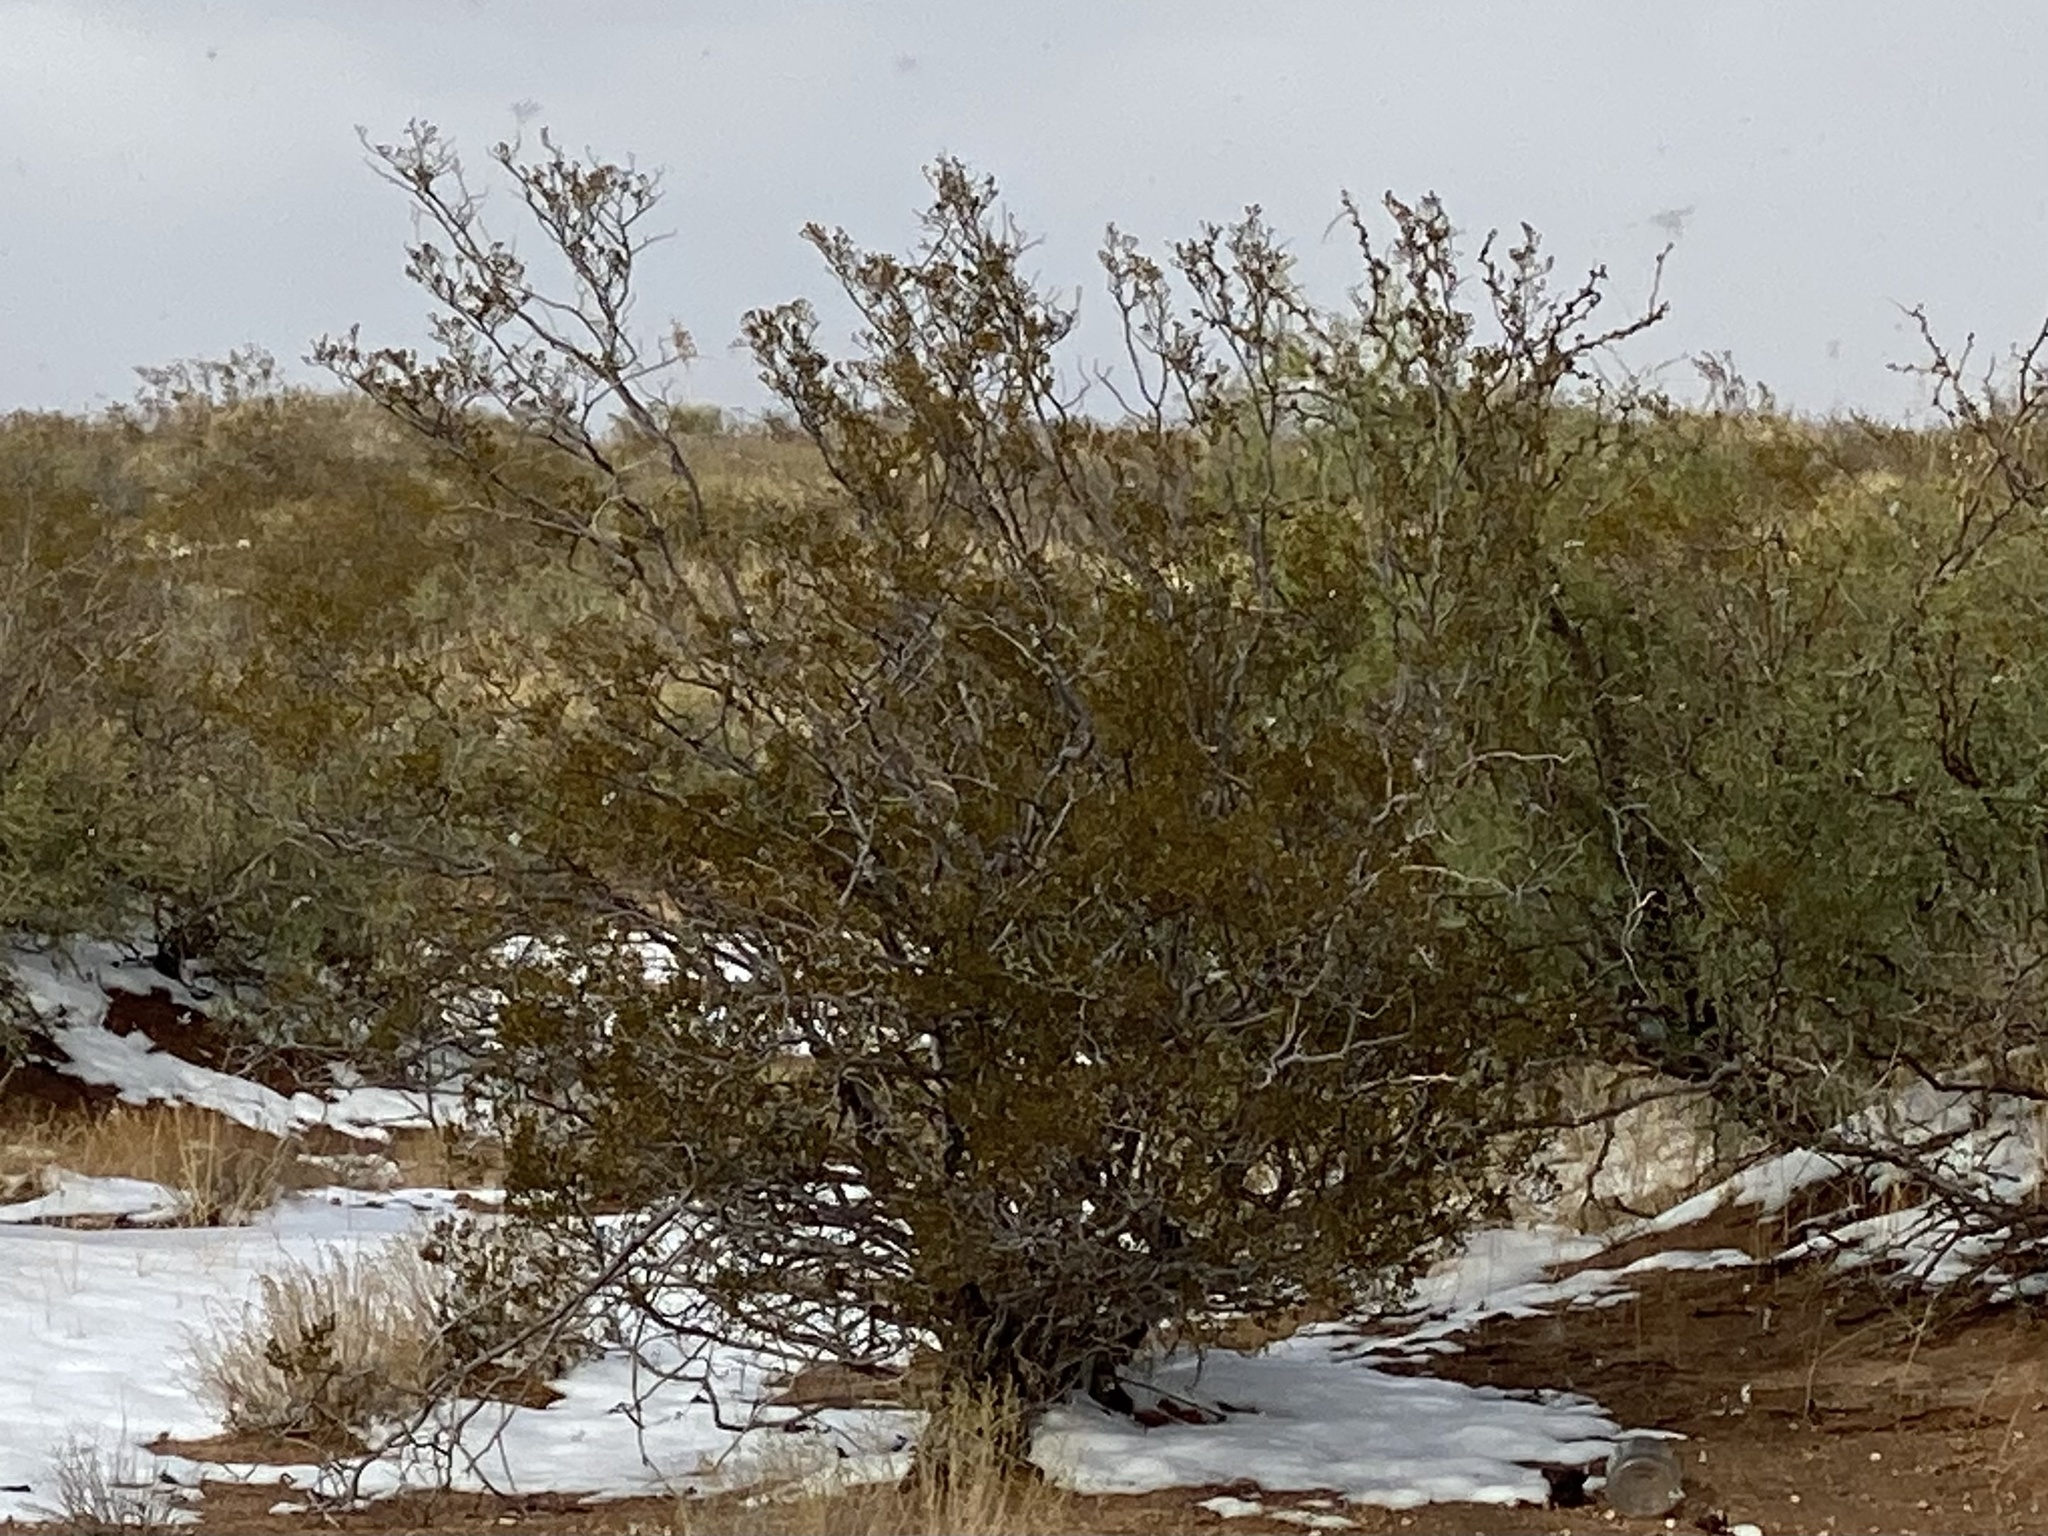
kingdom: Plantae
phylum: Tracheophyta
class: Magnoliopsida
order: Zygophyllales
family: Zygophyllaceae
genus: Larrea
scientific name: Larrea tridentata
